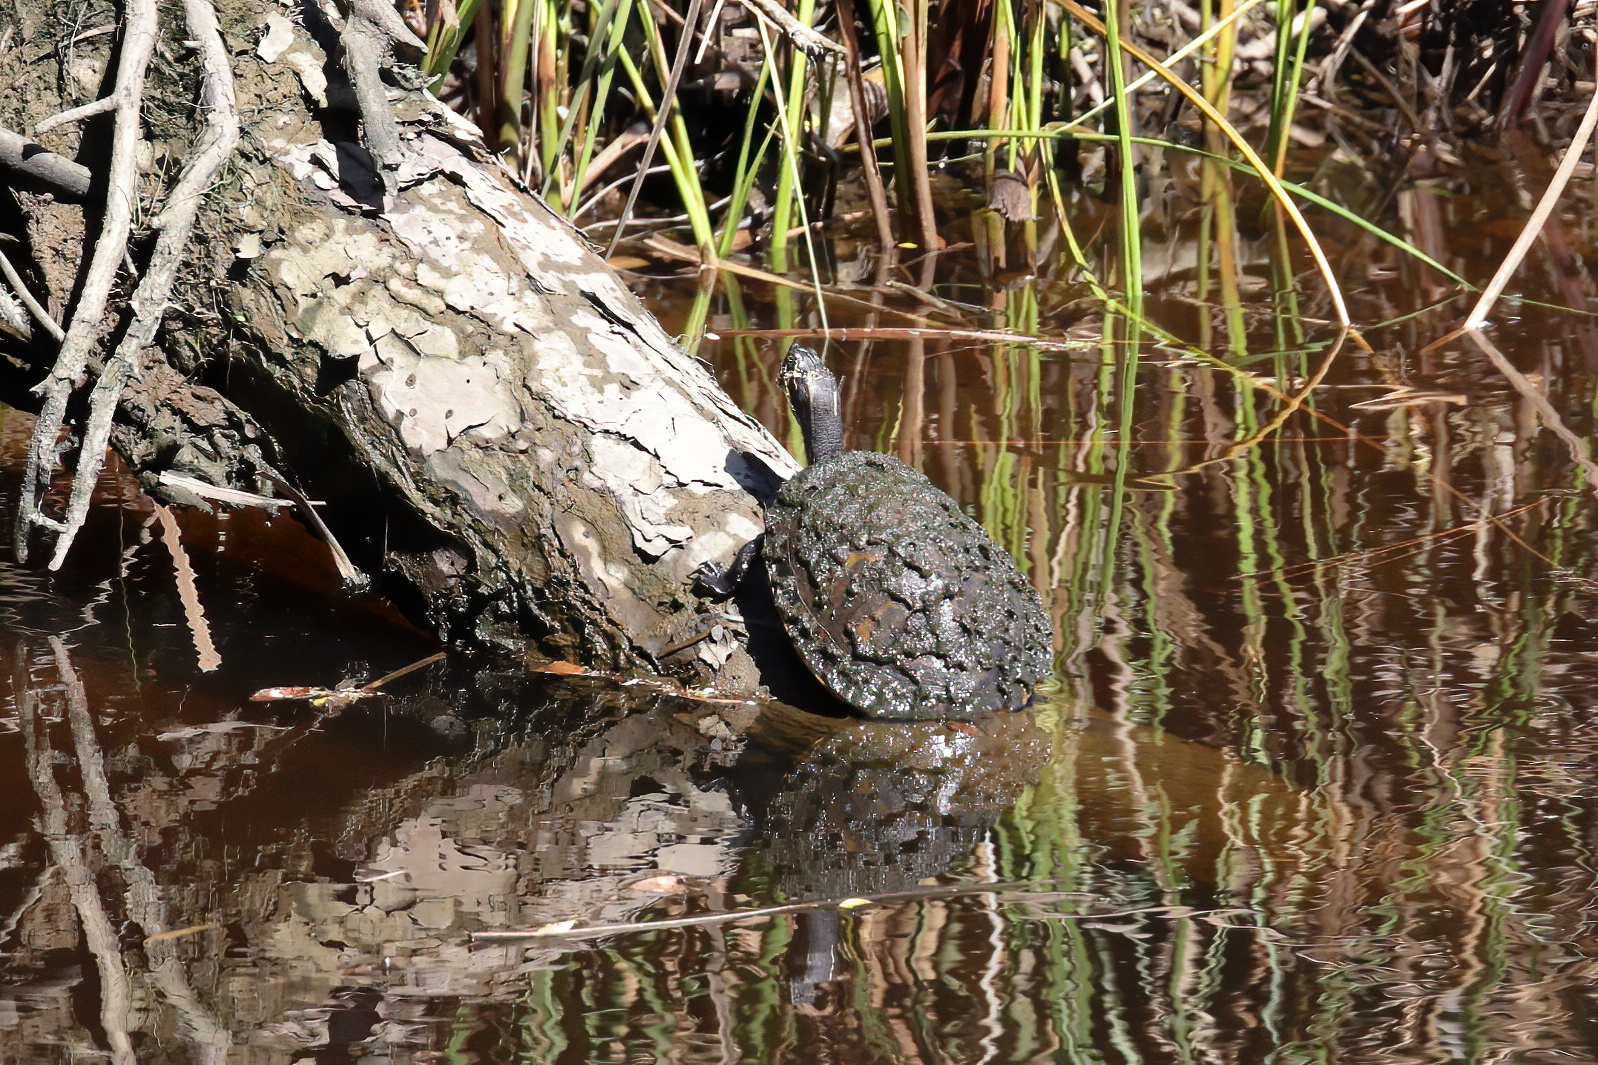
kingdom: Animalia
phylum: Chordata
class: Testudines
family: Emydidae
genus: Pseudemys
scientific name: Pseudemys concinna
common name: Eastern river cooter
